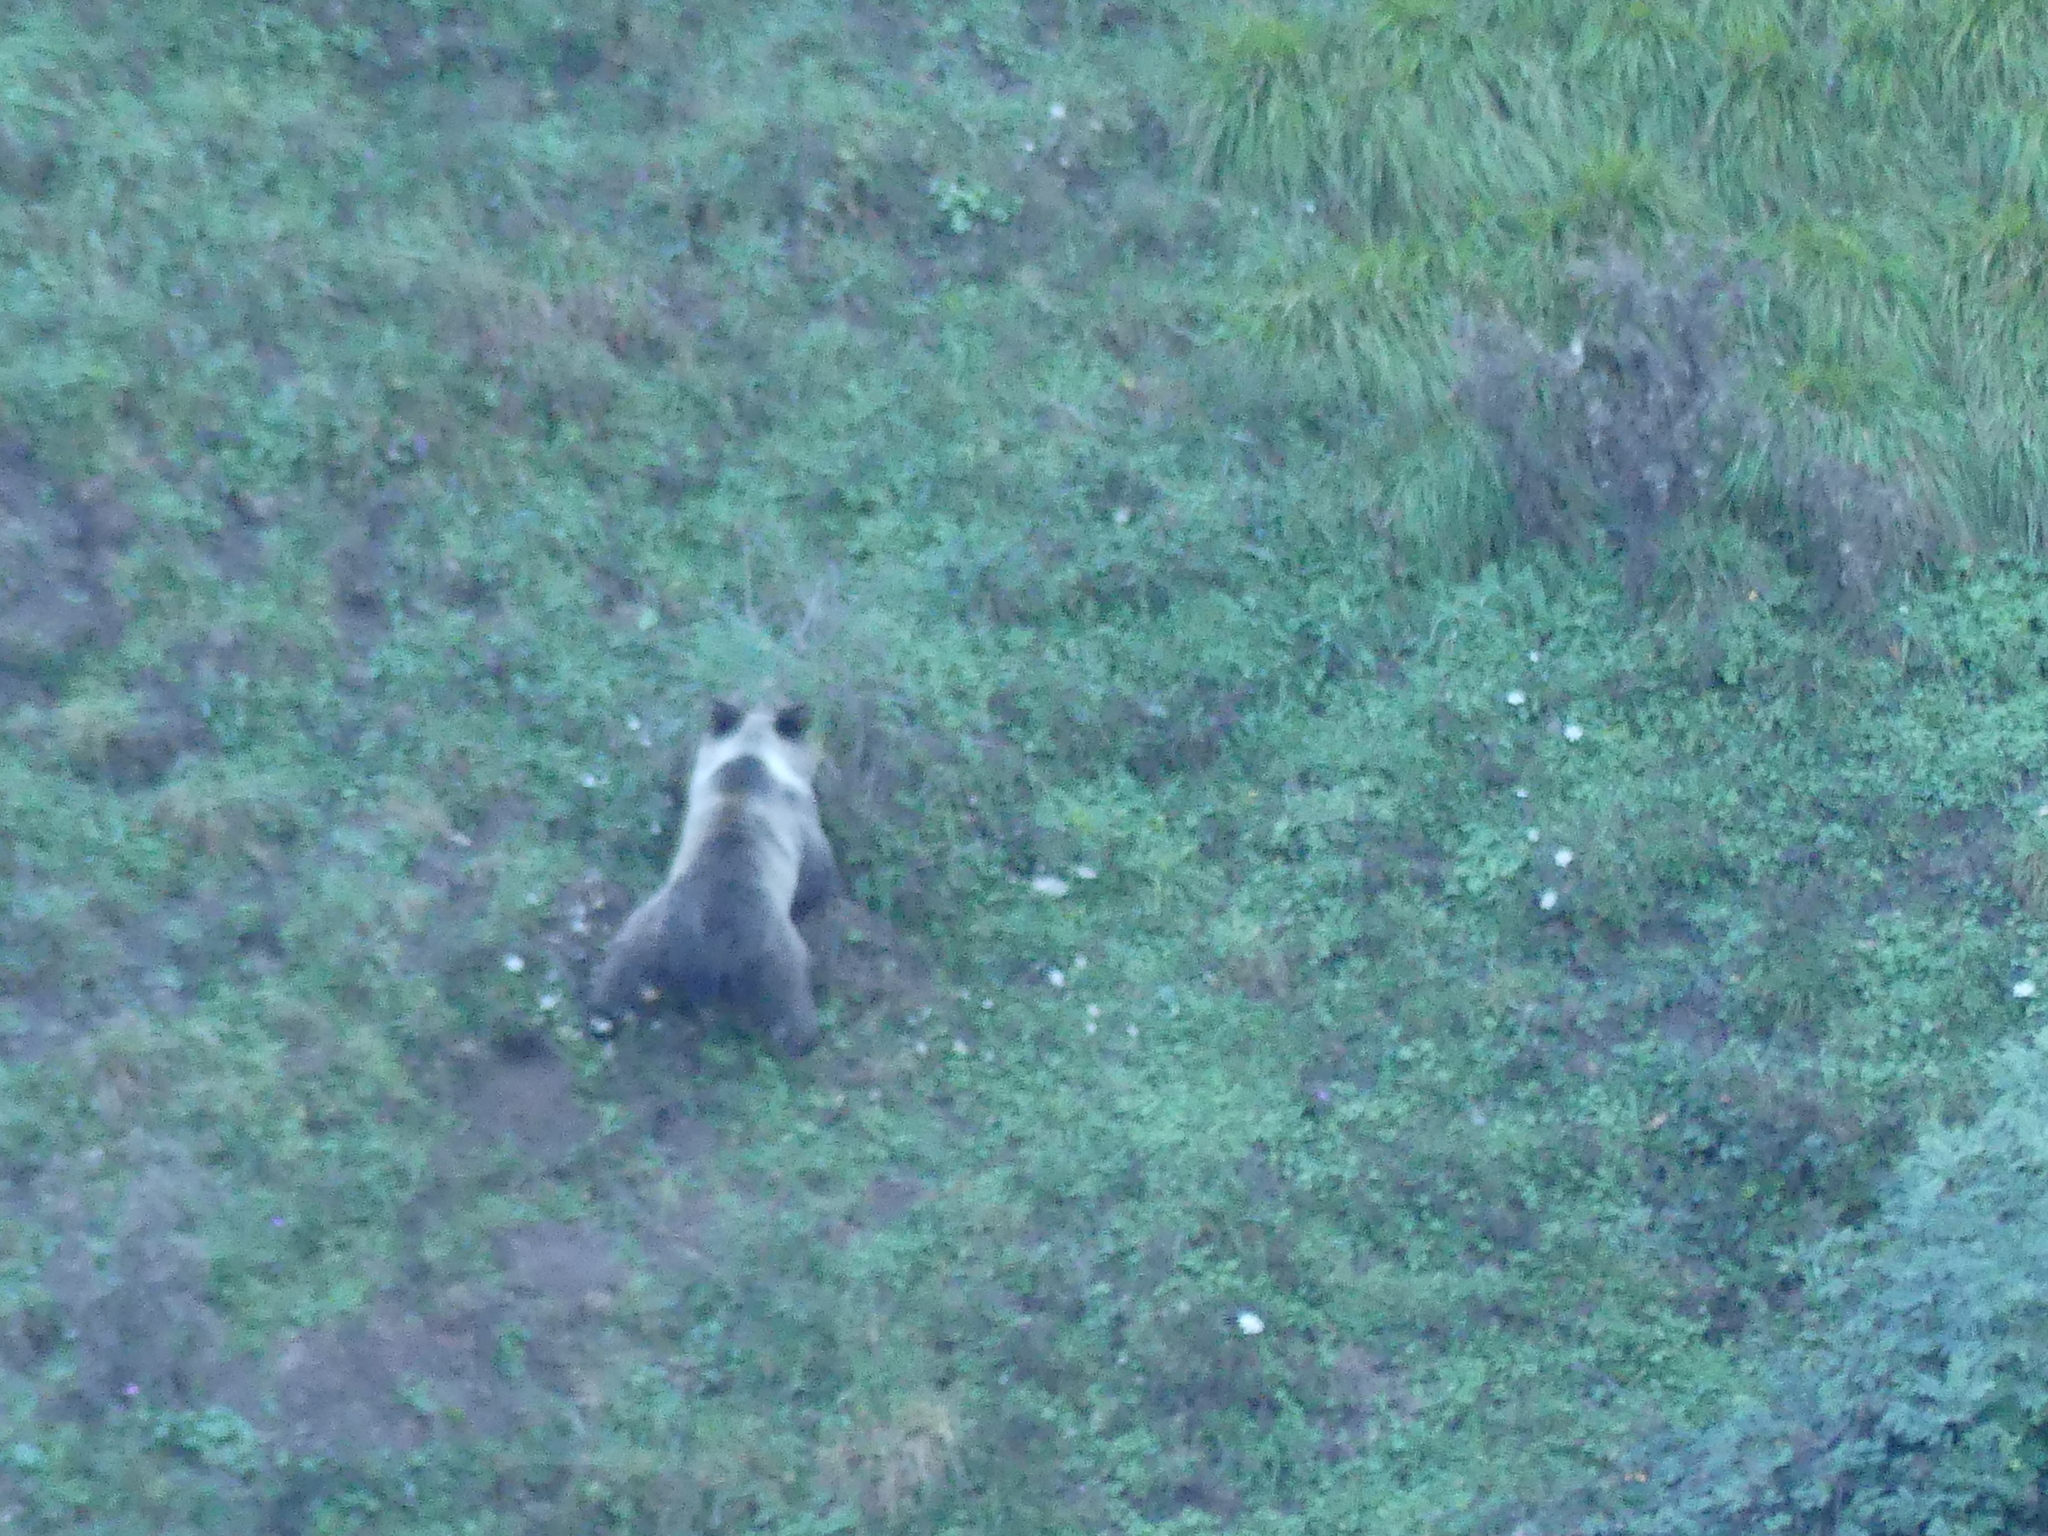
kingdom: Animalia
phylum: Chordata
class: Mammalia
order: Carnivora
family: Ursidae
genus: Ursus
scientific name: Ursus arctos
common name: Brown bear
